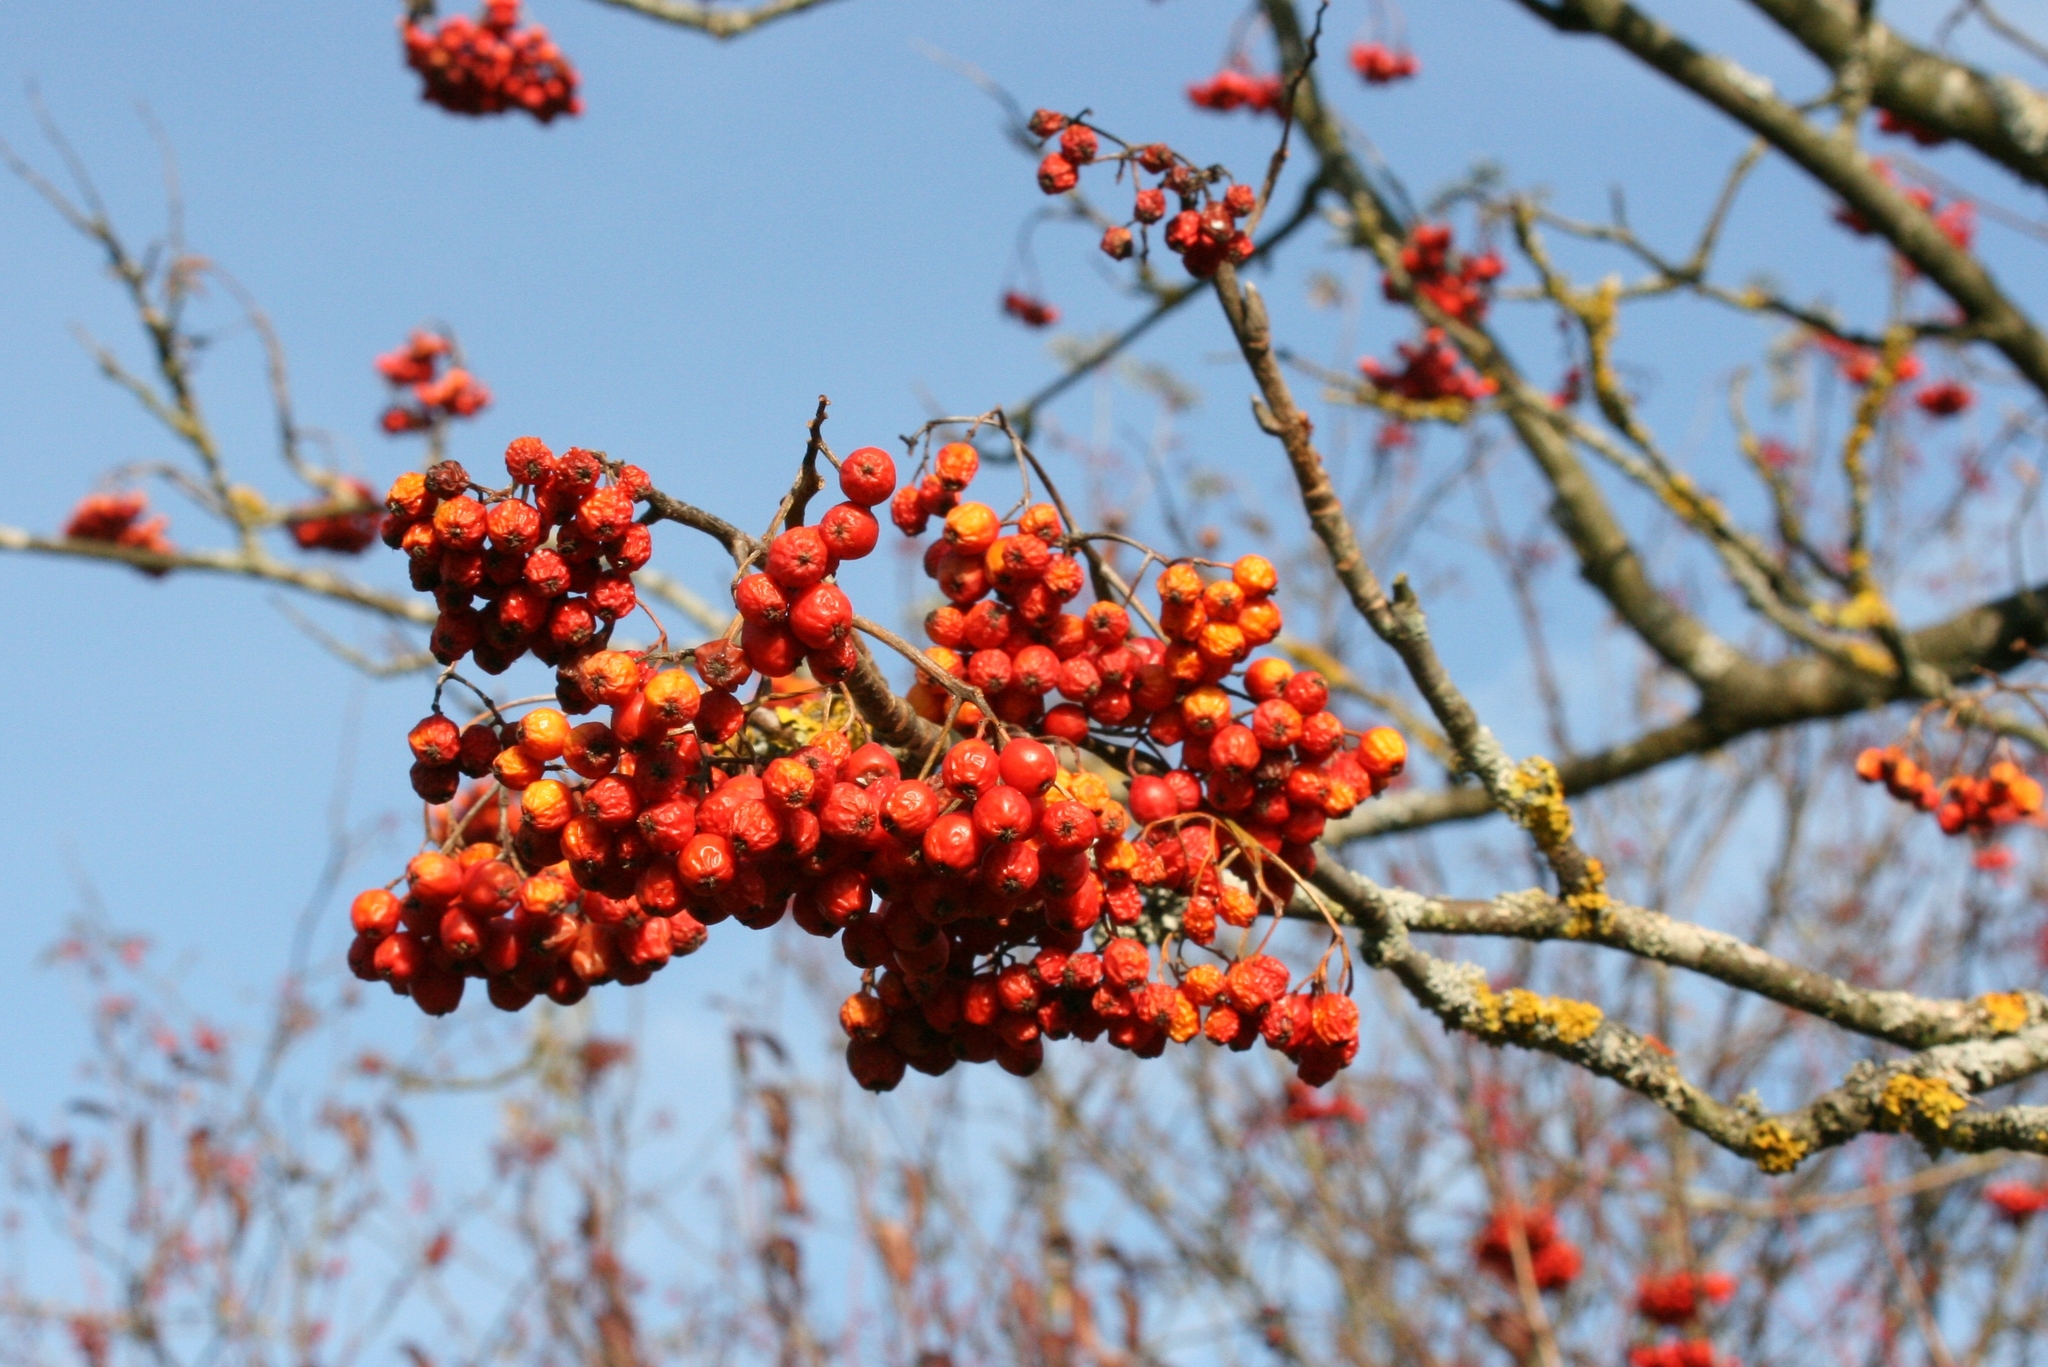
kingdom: Plantae
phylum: Tracheophyta
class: Magnoliopsida
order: Rosales
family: Rosaceae
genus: Sorbus
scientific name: Sorbus aucuparia
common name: Rowan
